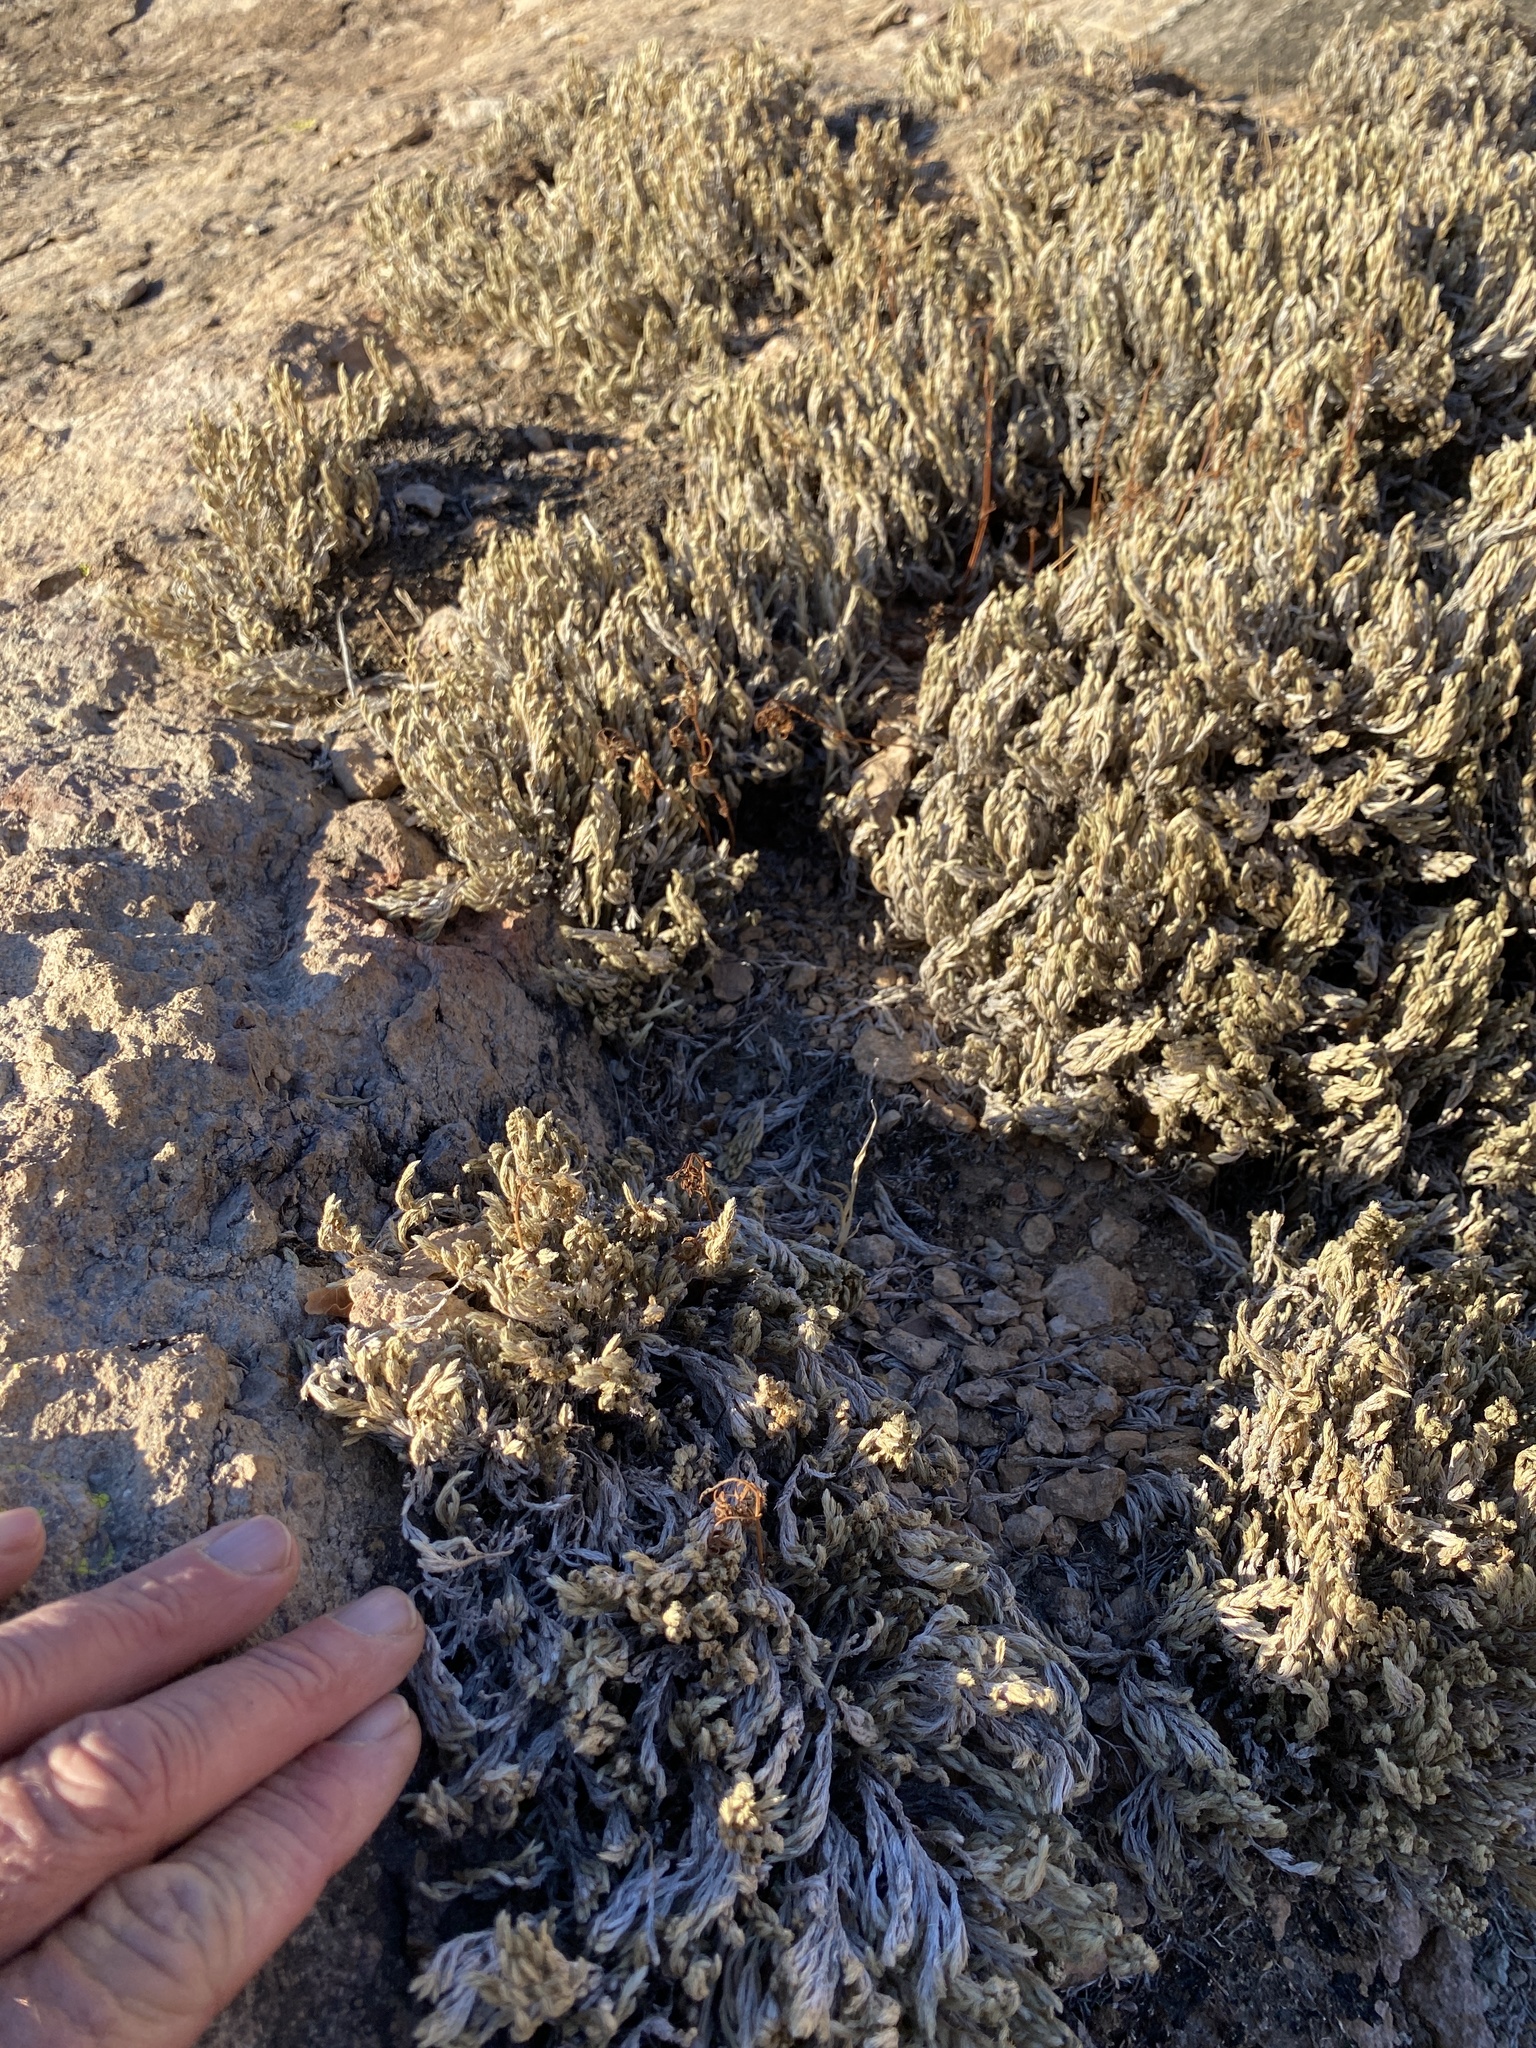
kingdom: Plantae
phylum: Tracheophyta
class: Lycopodiopsida
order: Selaginellales
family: Selaginellaceae
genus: Selaginella
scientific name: Selaginella rupincola
